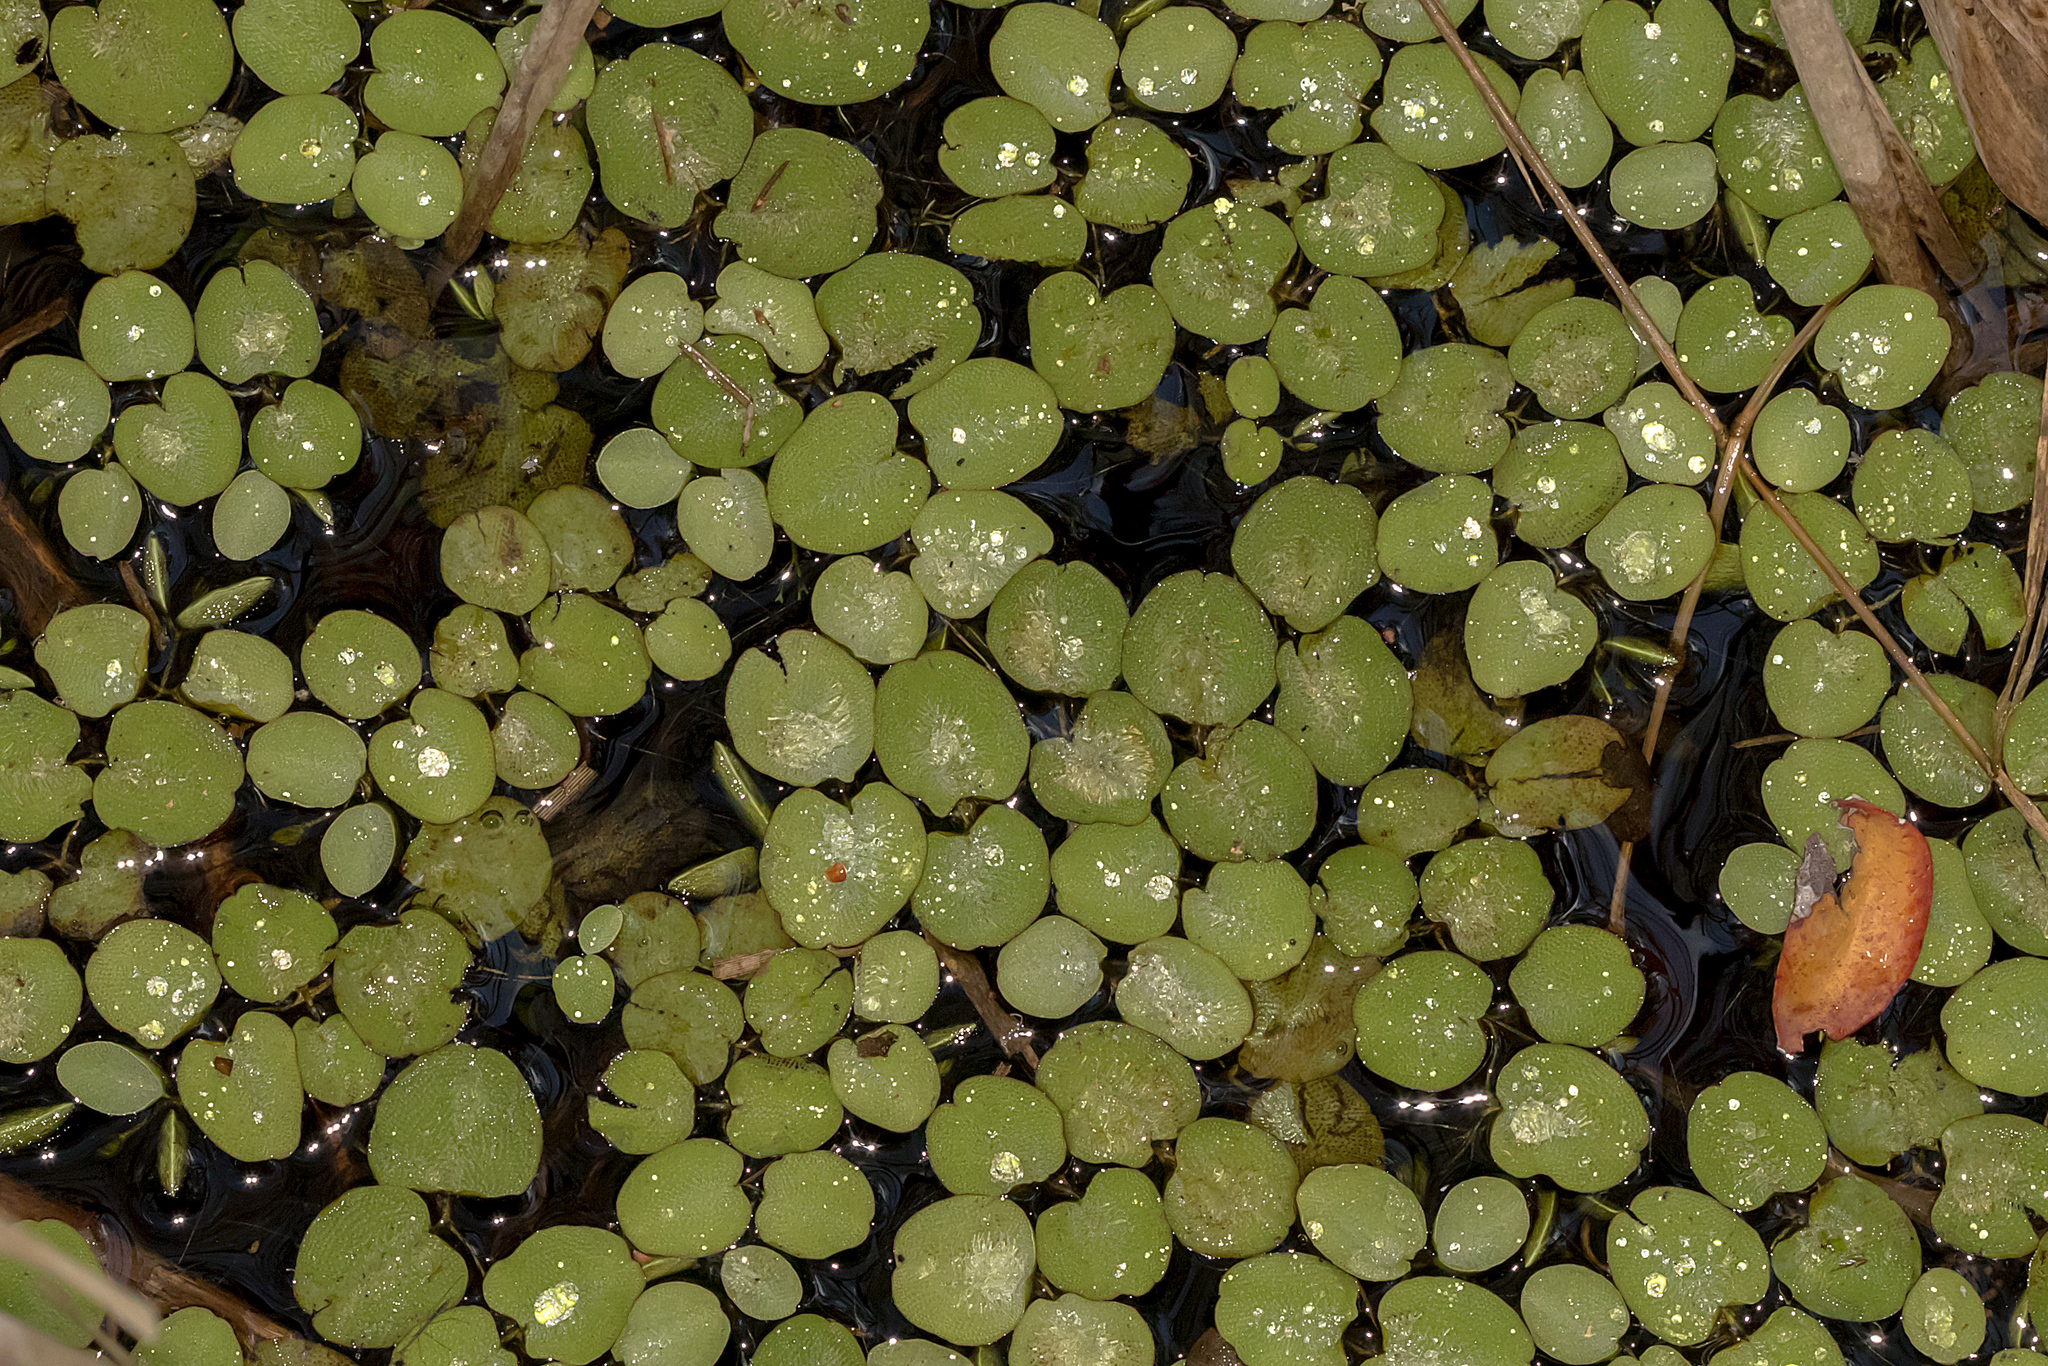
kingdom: Plantae
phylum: Tracheophyta
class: Polypodiopsida
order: Salviniales
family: Salviniaceae
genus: Salvinia
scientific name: Salvinia molesta
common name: Kariba weed
